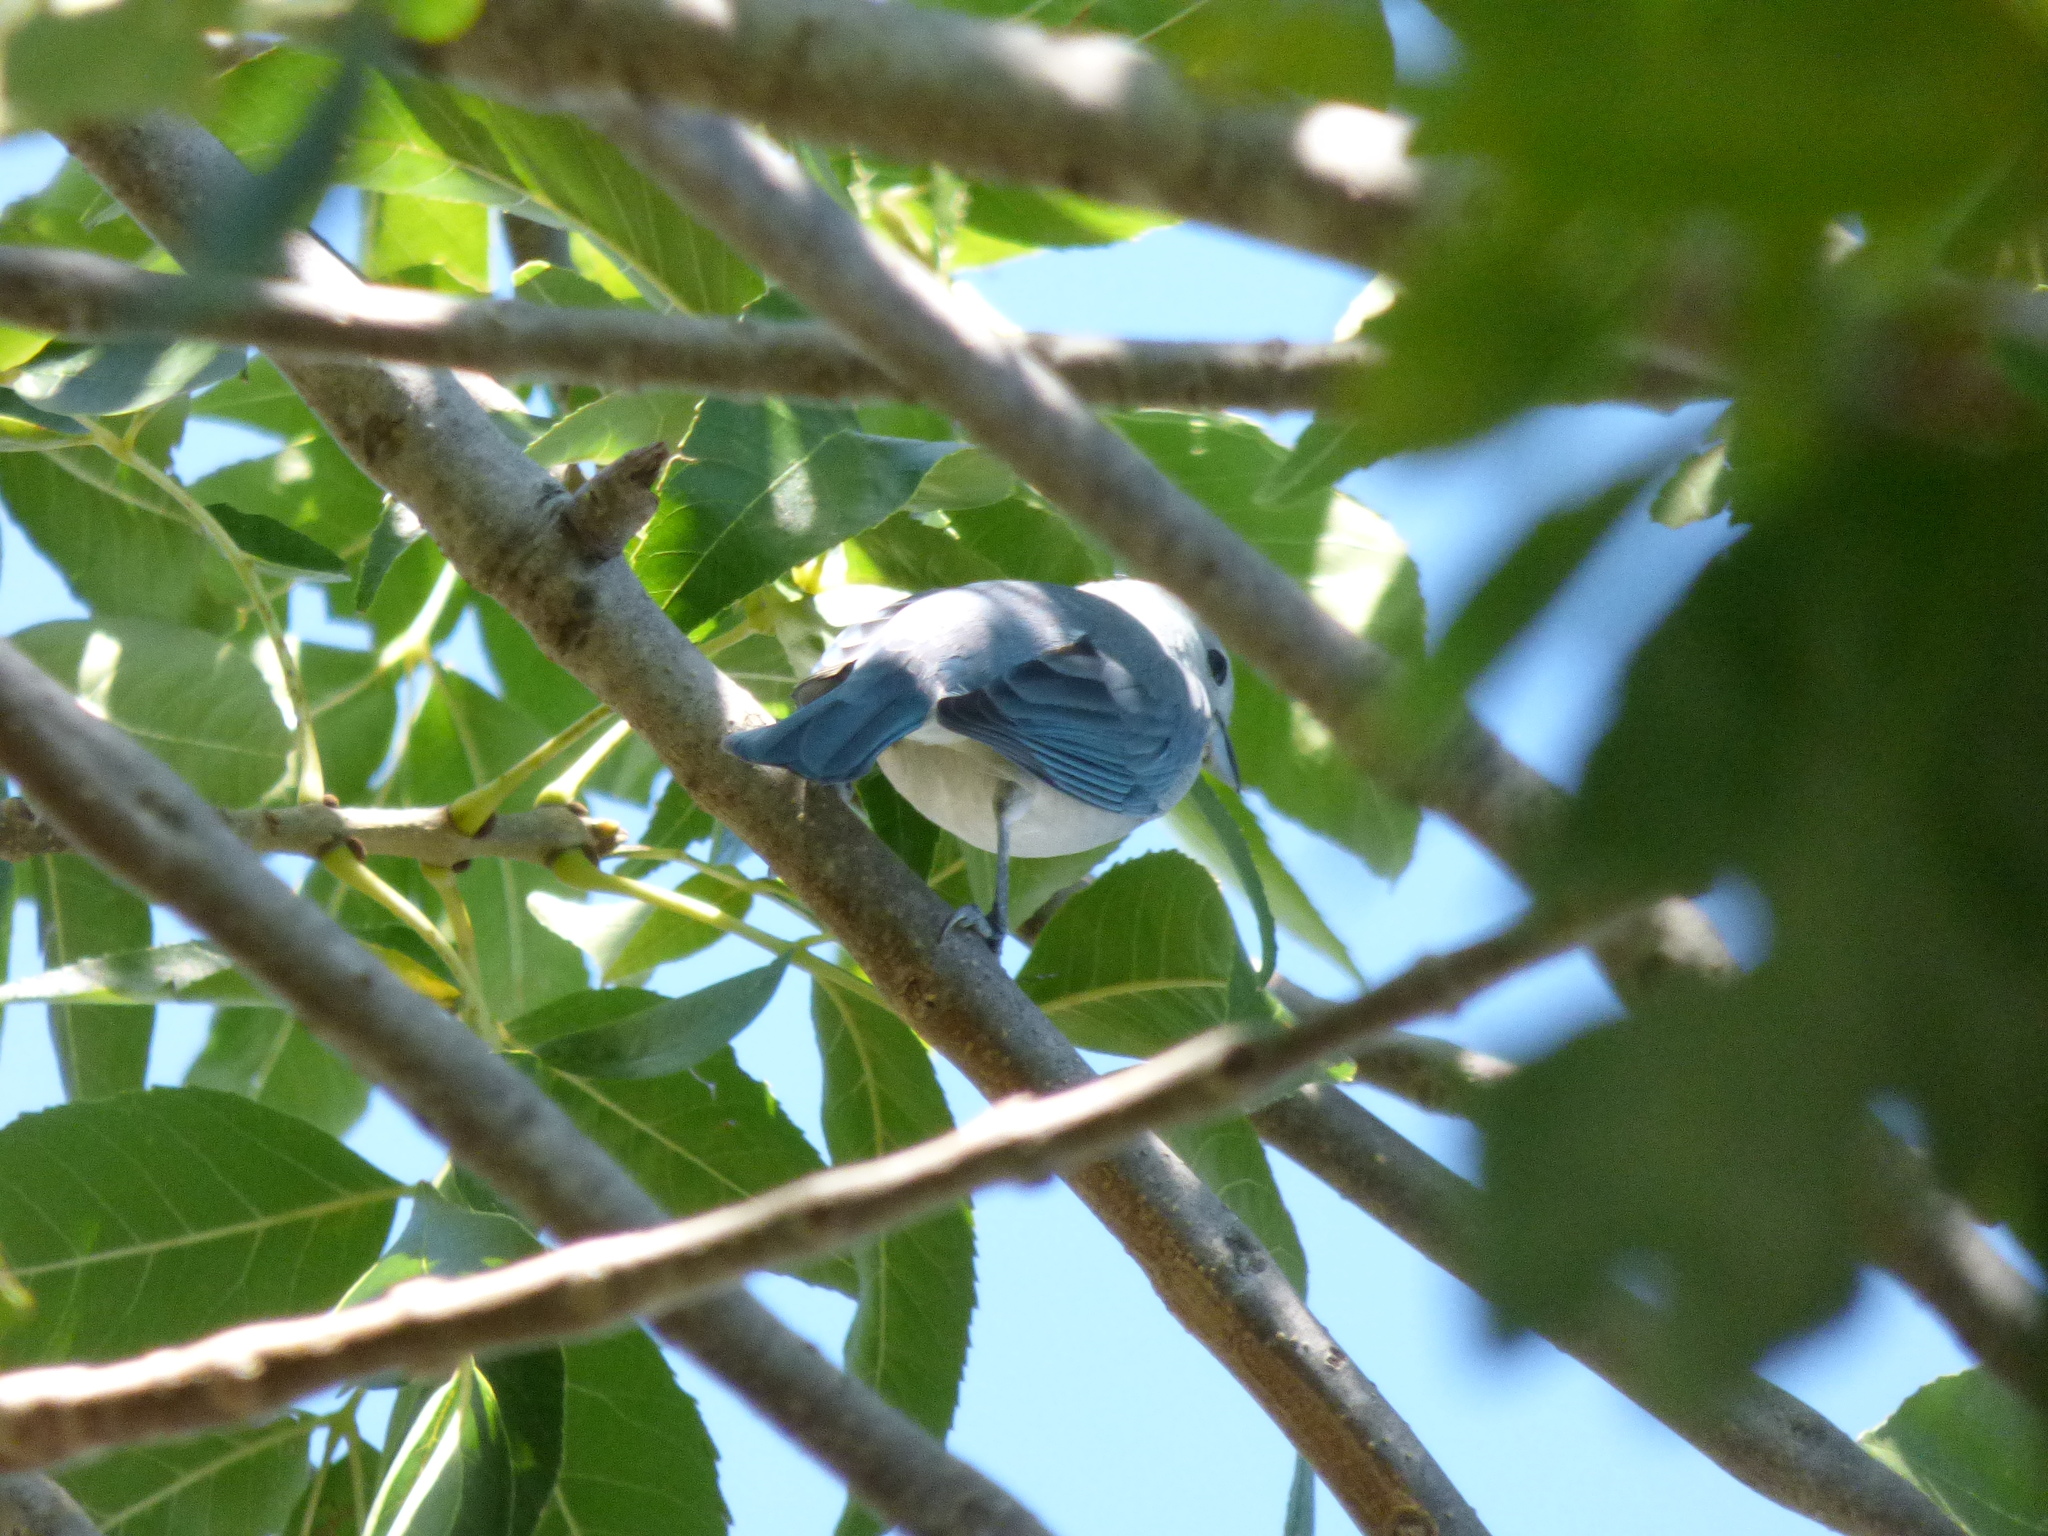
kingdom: Animalia
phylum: Chordata
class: Aves
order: Passeriformes
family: Thraupidae
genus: Thraupis
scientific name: Thraupis sayaca
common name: Sayaca tanager
